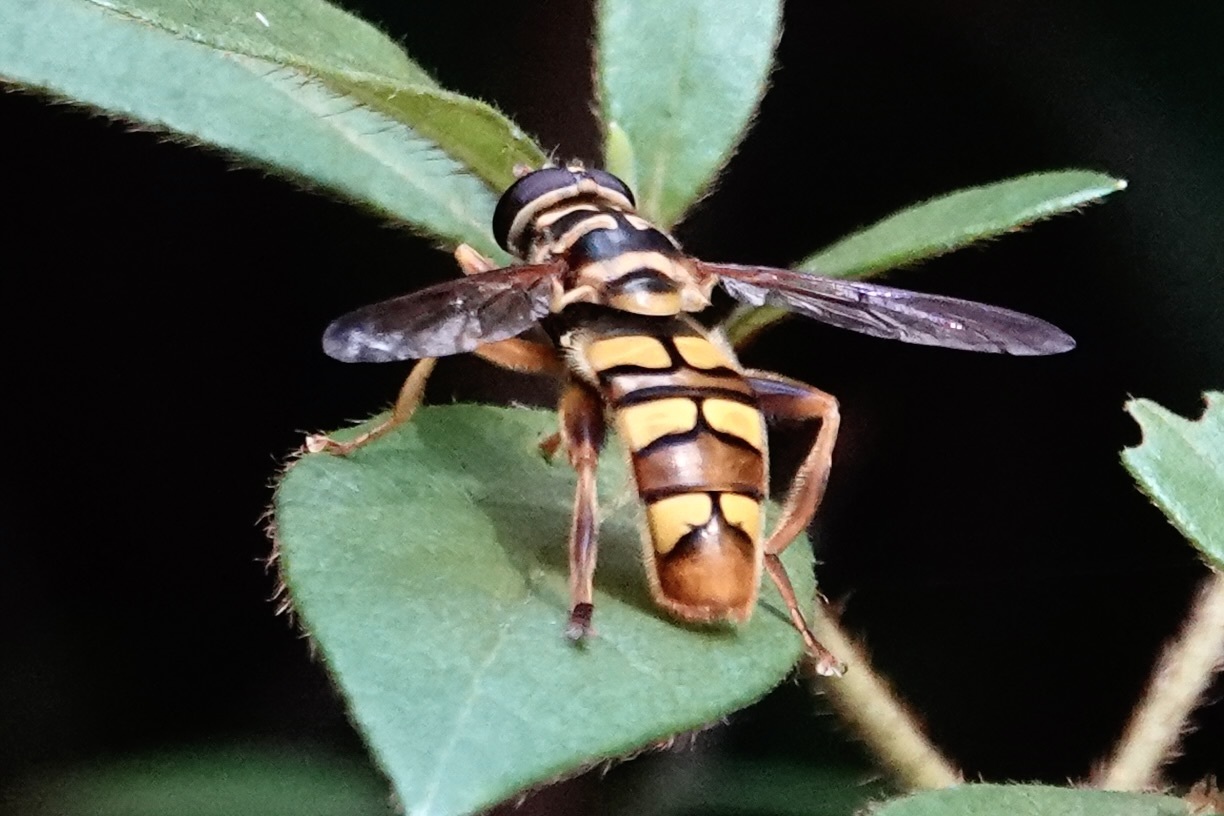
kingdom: Animalia
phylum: Arthropoda
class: Insecta
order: Diptera
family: Syrphidae
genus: Milesia
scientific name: Milesia virginiensis
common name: Virginia giant
